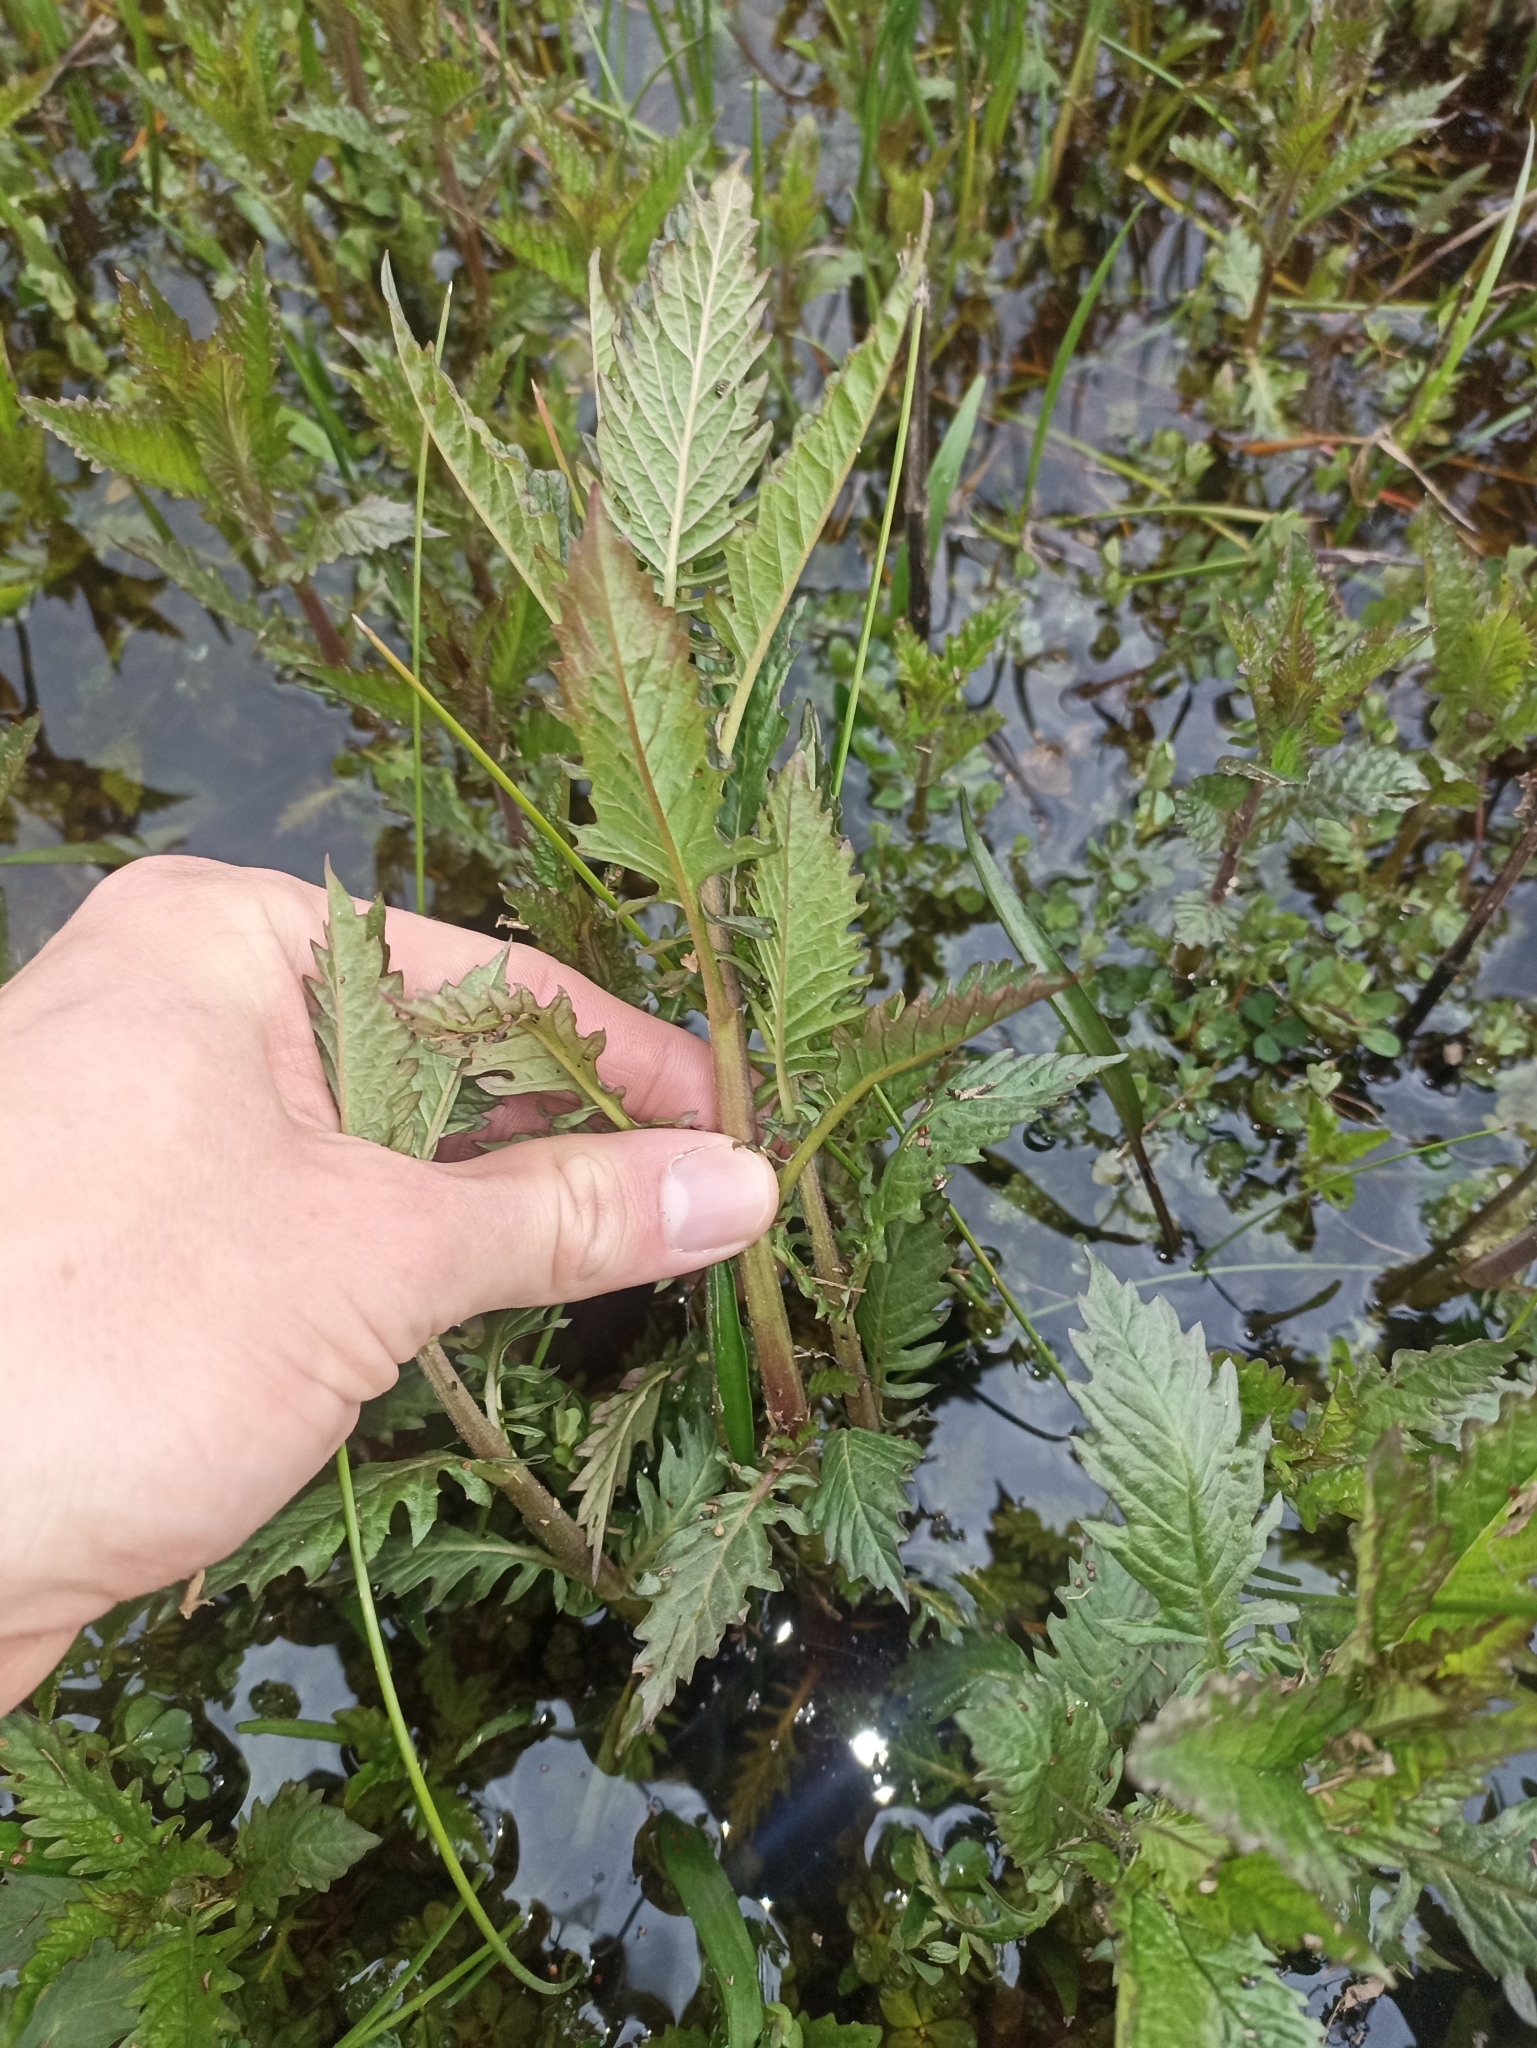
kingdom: Plantae
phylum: Tracheophyta
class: Magnoliopsida
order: Lamiales
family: Lamiaceae
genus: Lycopus
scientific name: Lycopus europaeus
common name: European bugleweed
